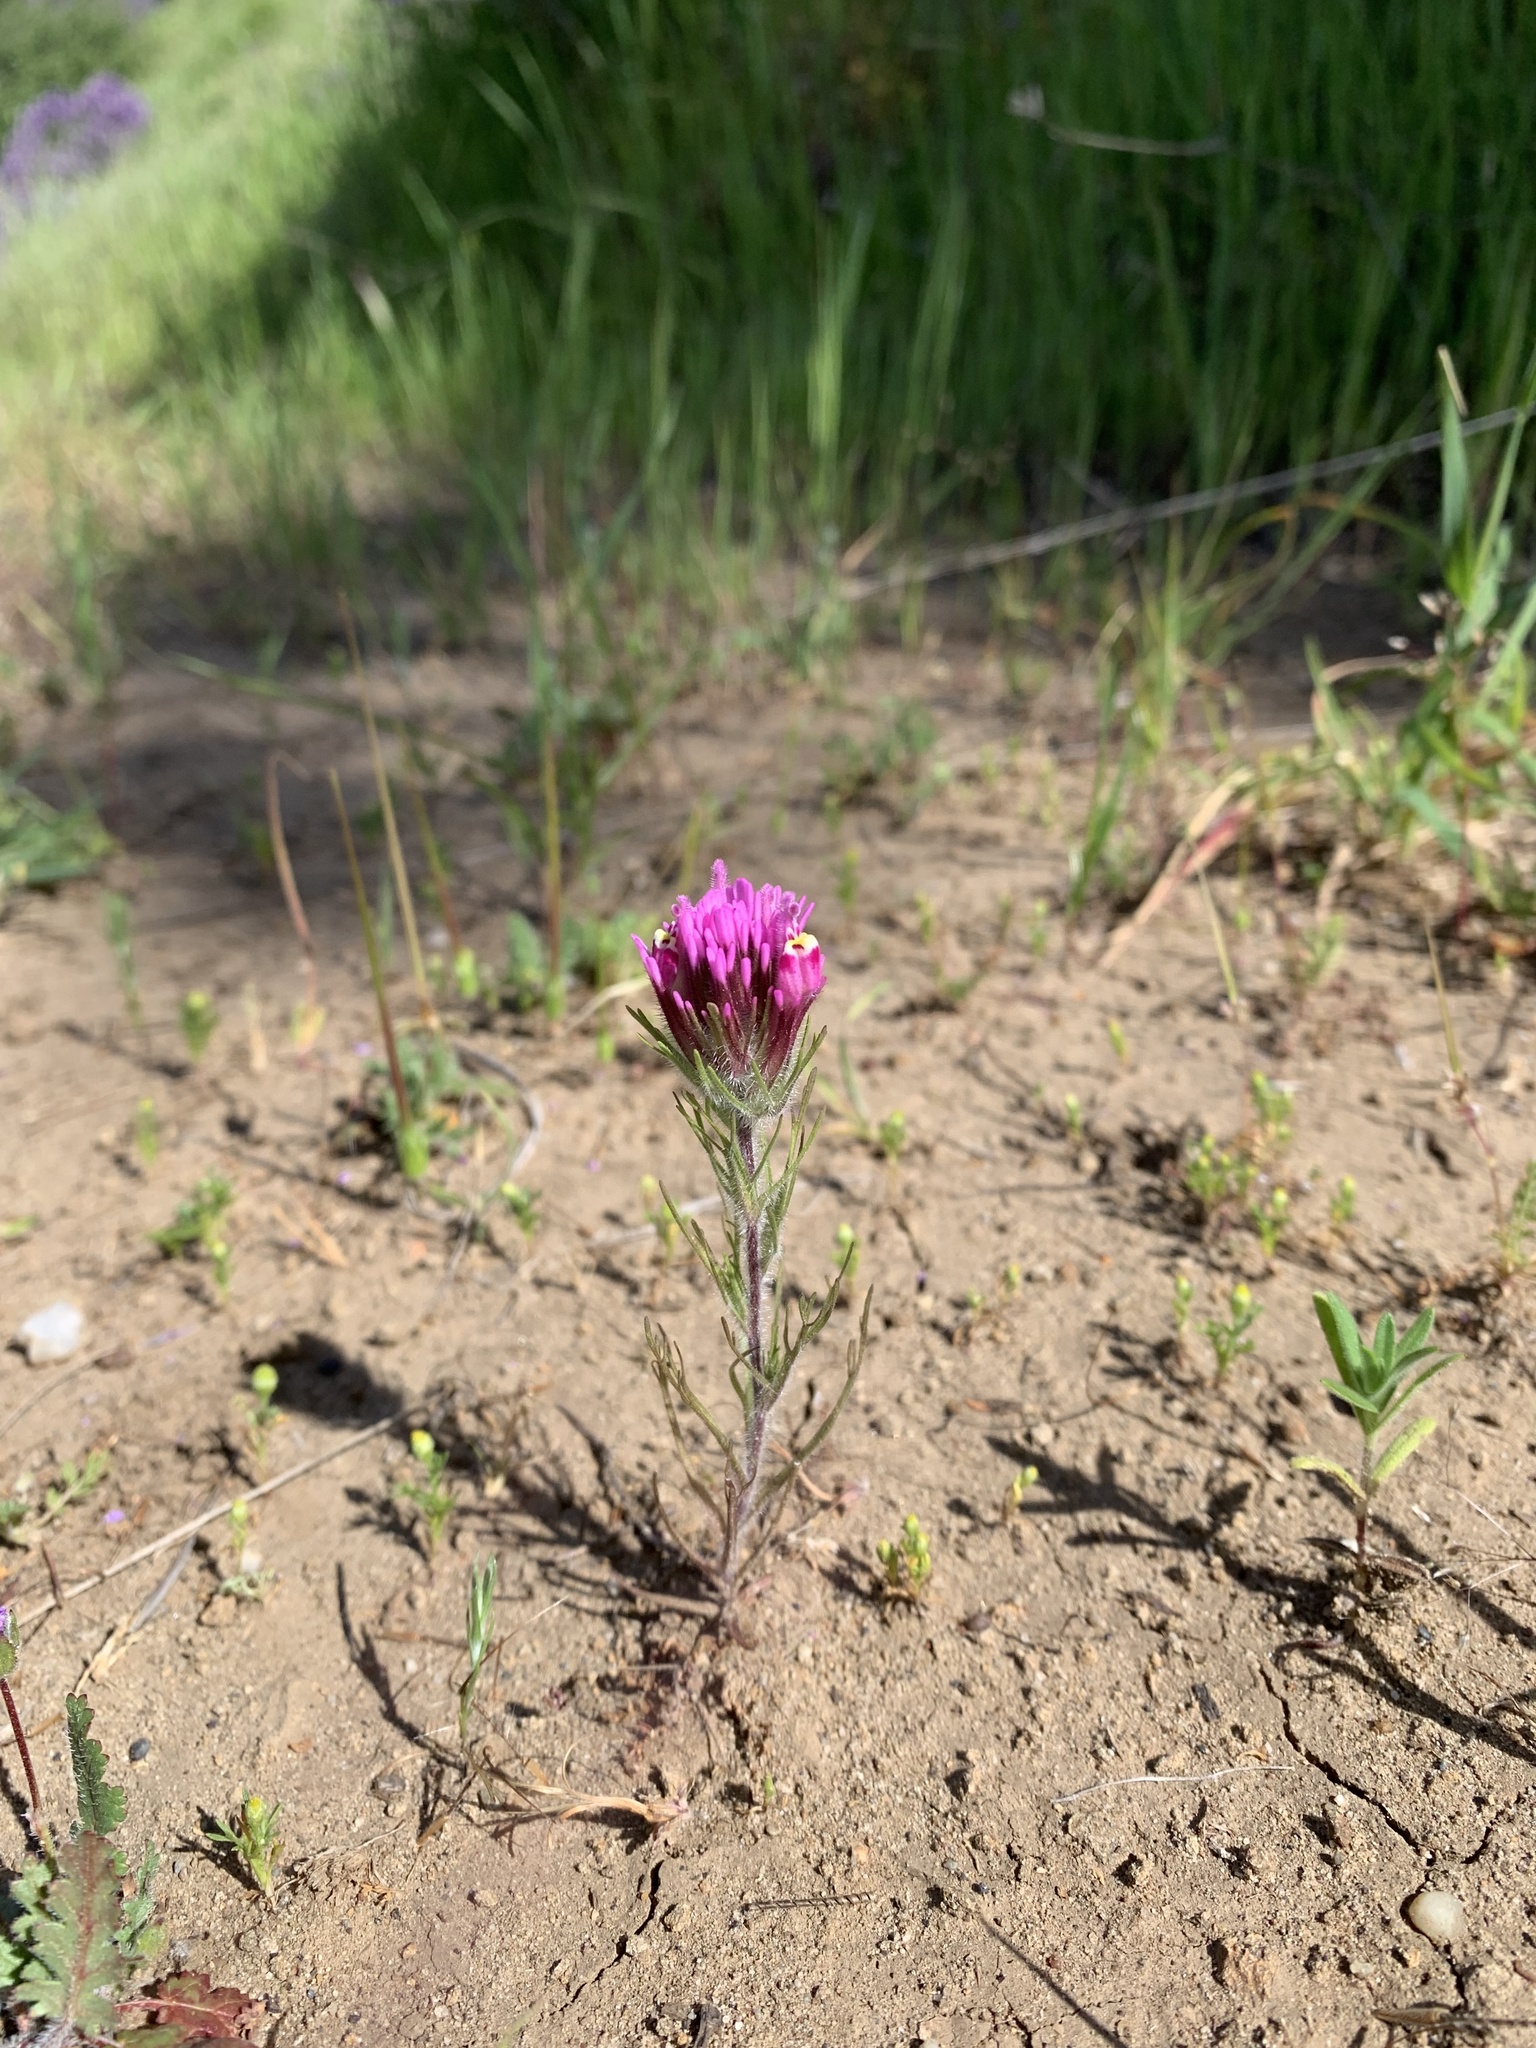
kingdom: Plantae
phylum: Tracheophyta
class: Magnoliopsida
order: Lamiales
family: Orobanchaceae
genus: Castilleja
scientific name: Castilleja exserta
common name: Purple owl-clover
